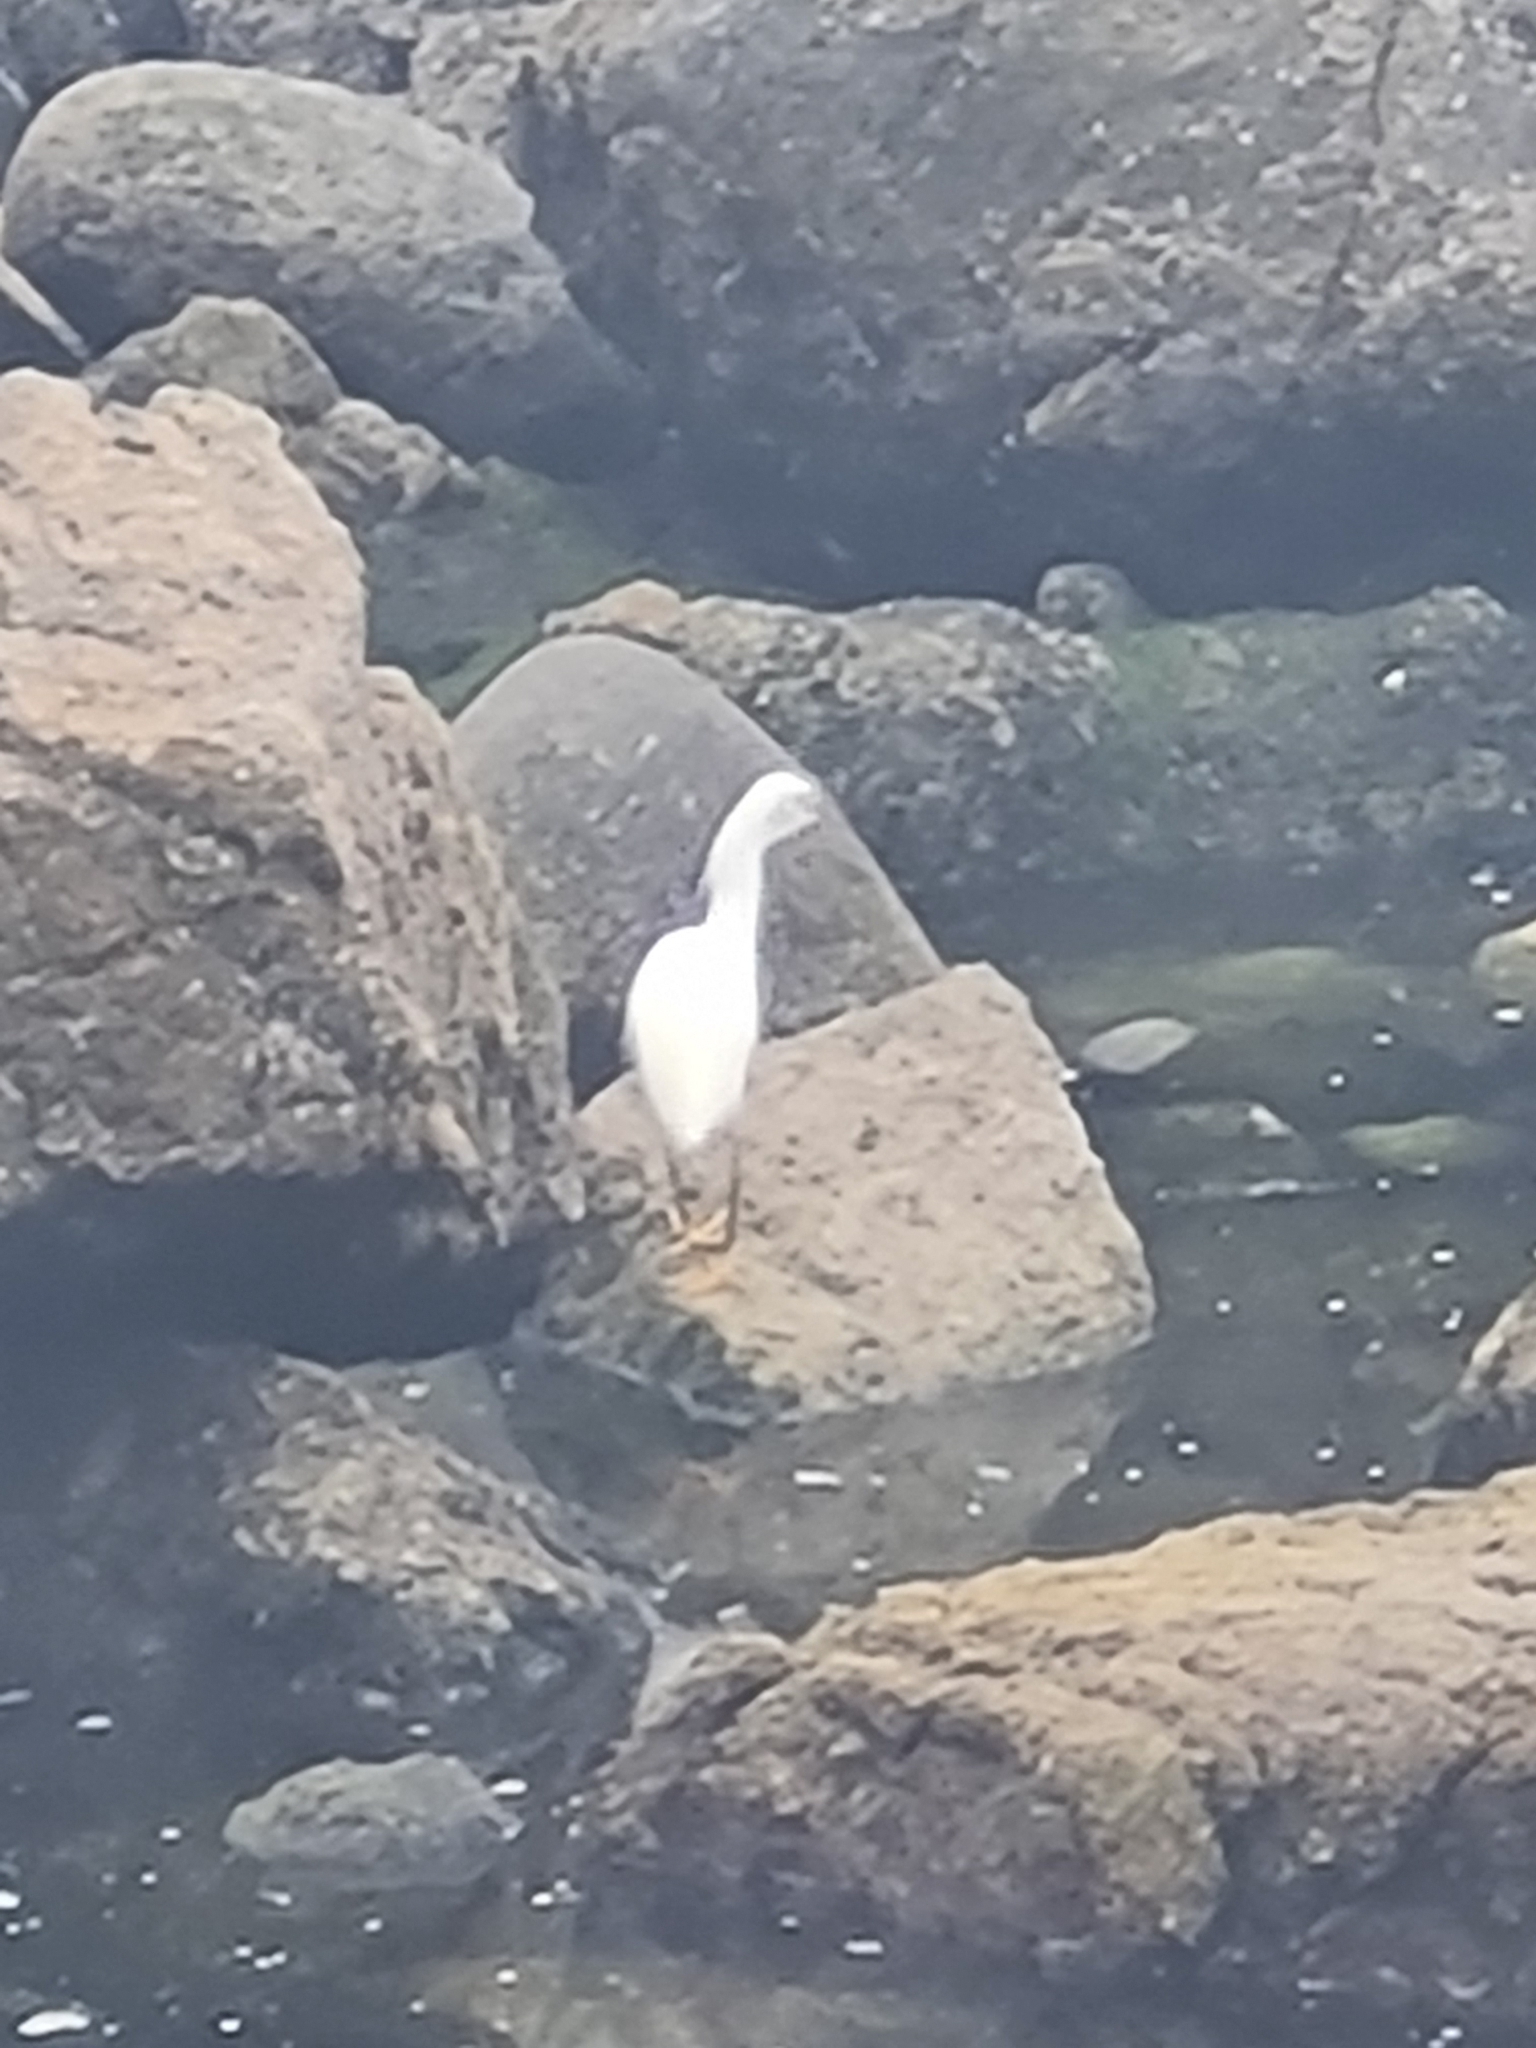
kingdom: Animalia
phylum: Chordata
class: Aves
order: Pelecaniformes
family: Ardeidae
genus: Egretta
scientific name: Egretta thula
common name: Snowy egret
